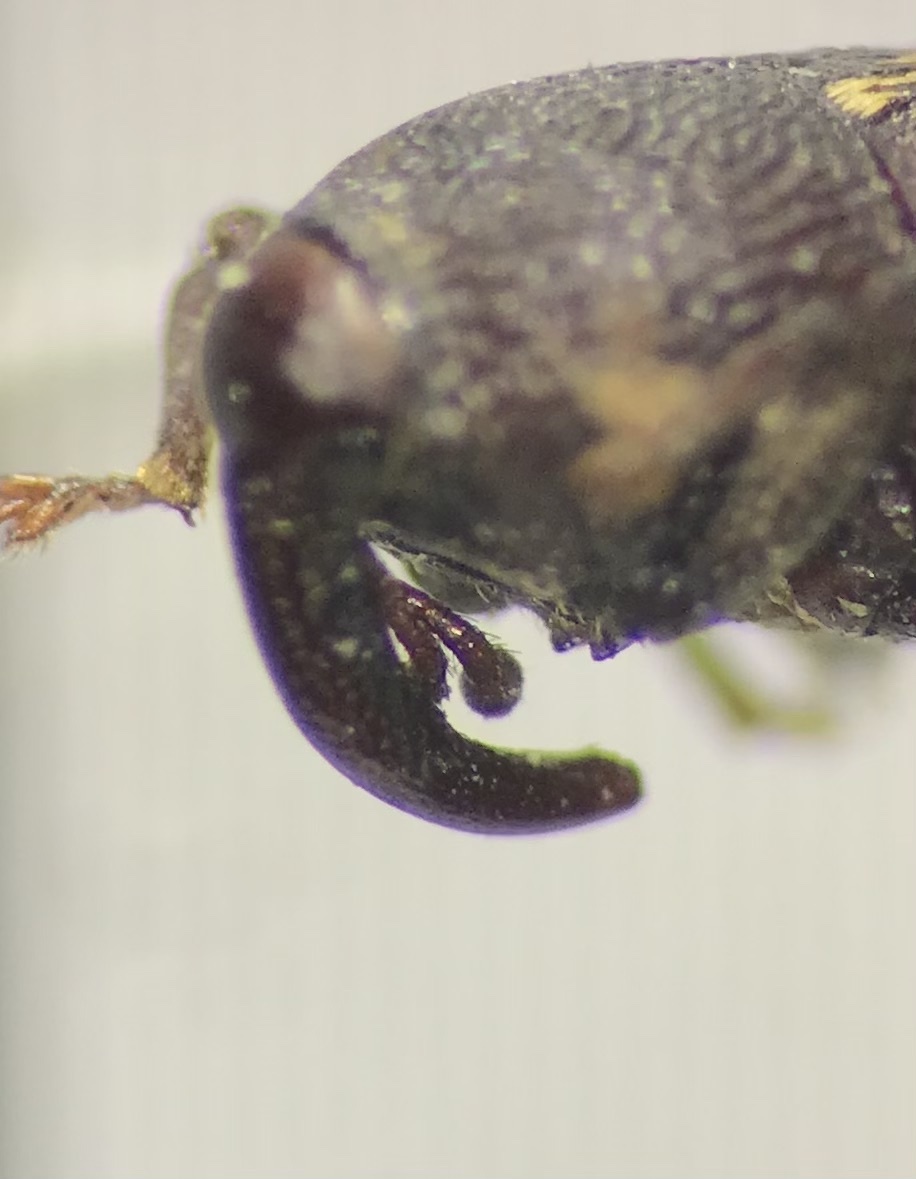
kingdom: Animalia
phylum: Arthropoda
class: Insecta
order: Coleoptera
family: Curculionidae
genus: Glyptobaris
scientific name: Glyptobaris lecontei
